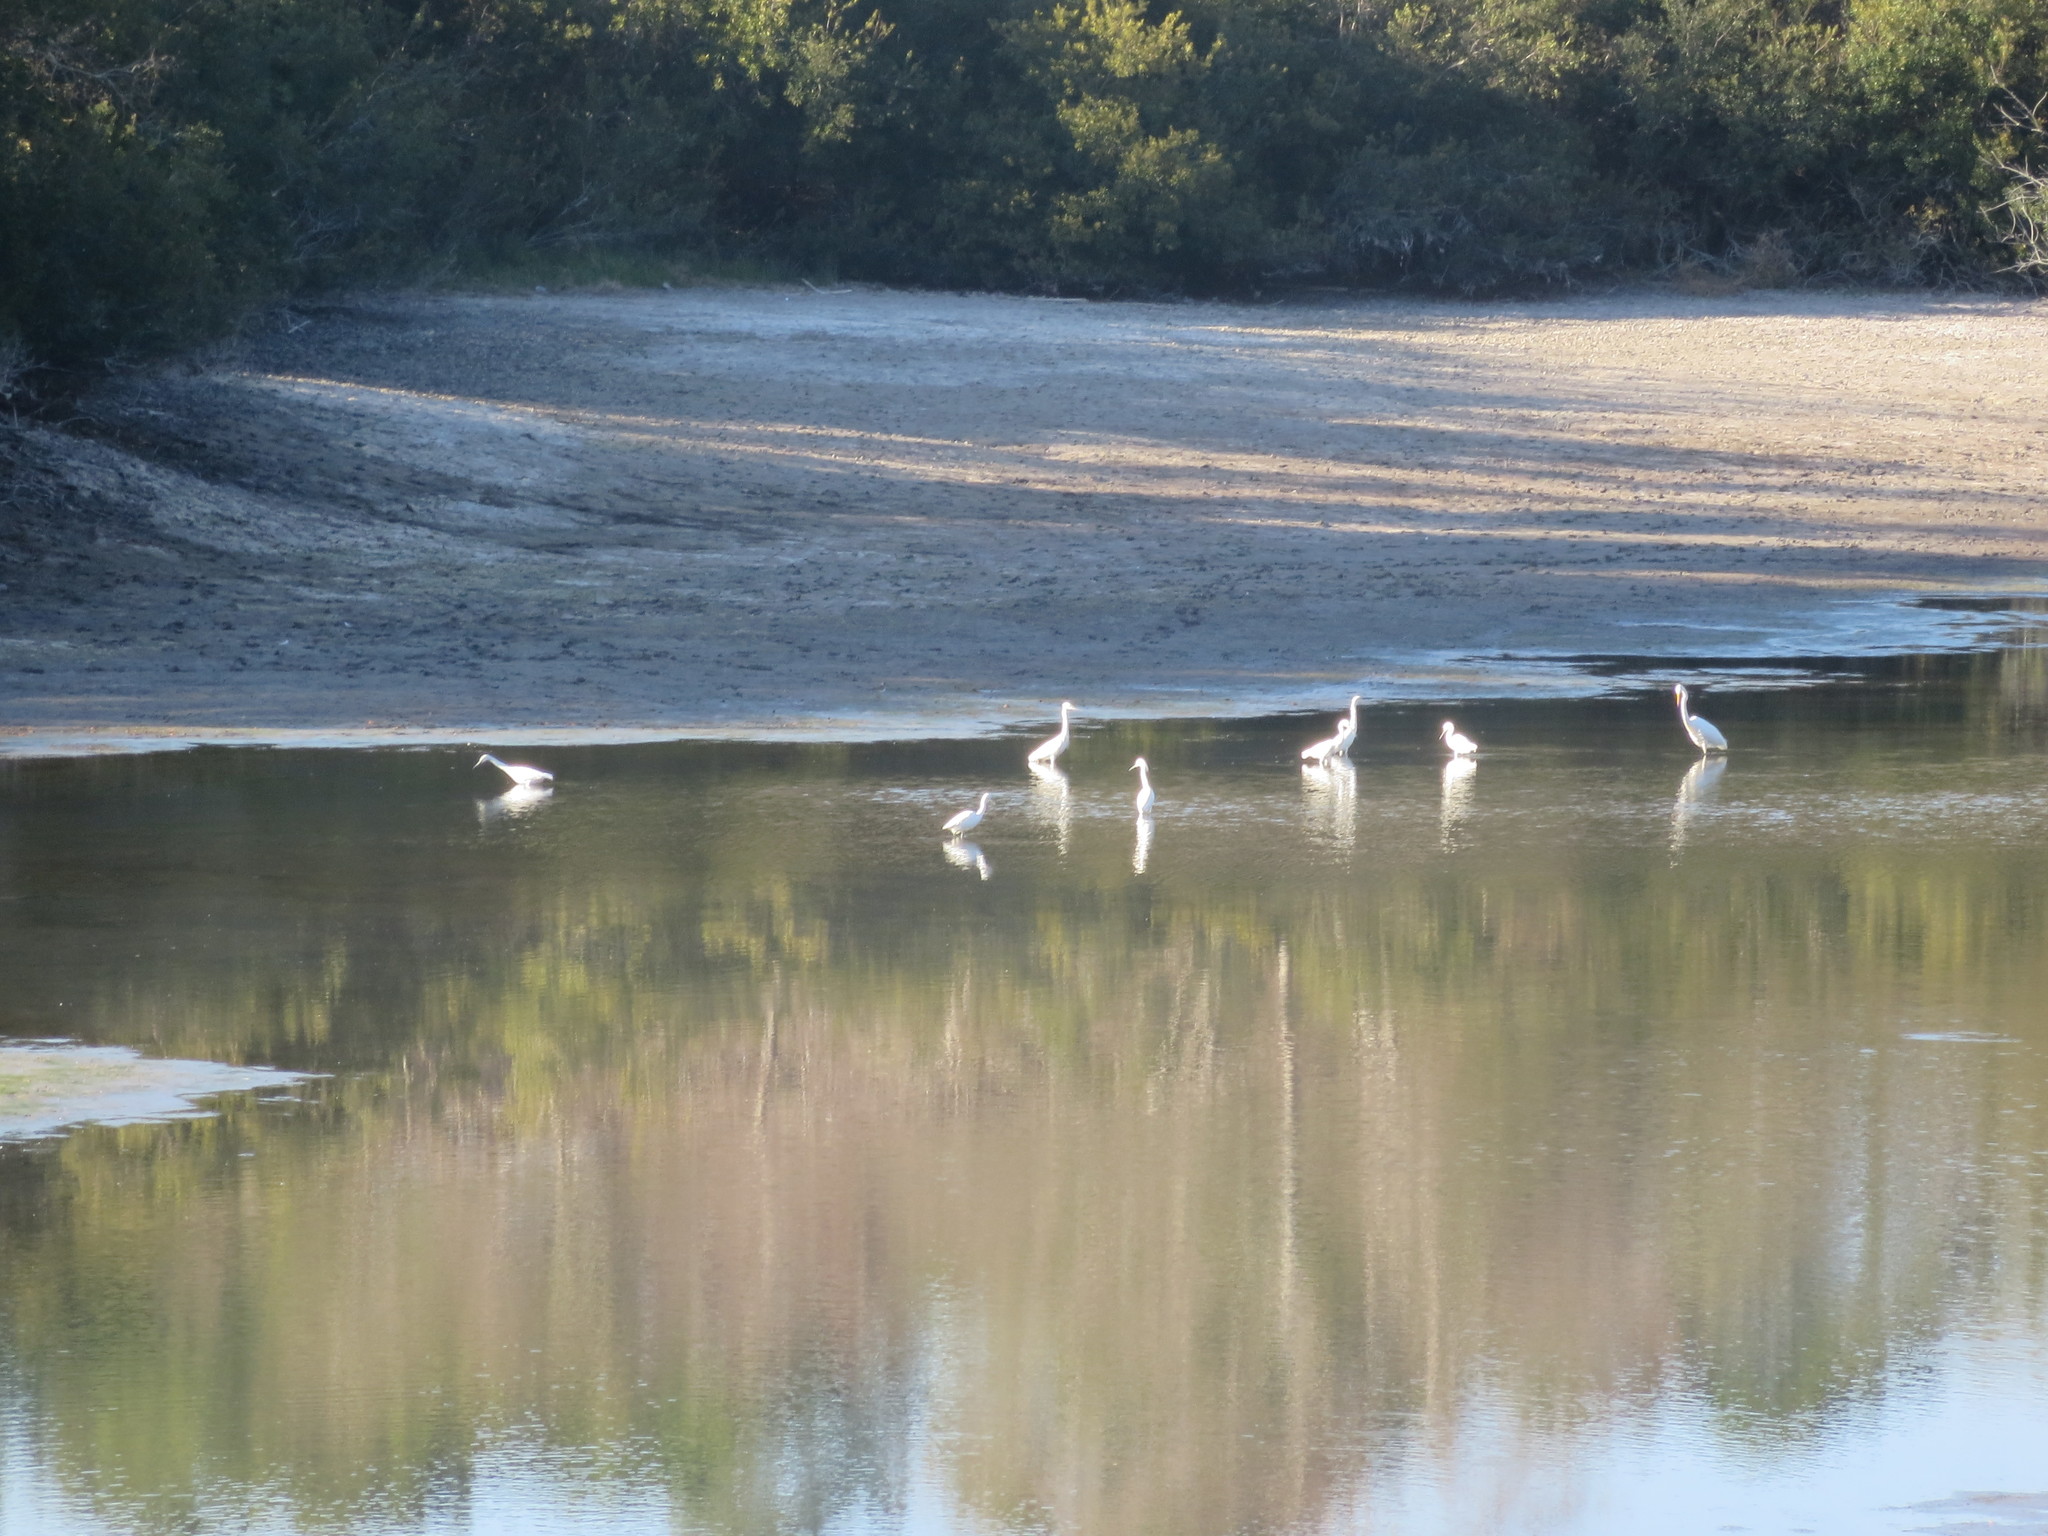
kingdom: Animalia
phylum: Chordata
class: Aves
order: Pelecaniformes
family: Ardeidae
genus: Egretta
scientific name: Egretta thula
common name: Snowy egret
